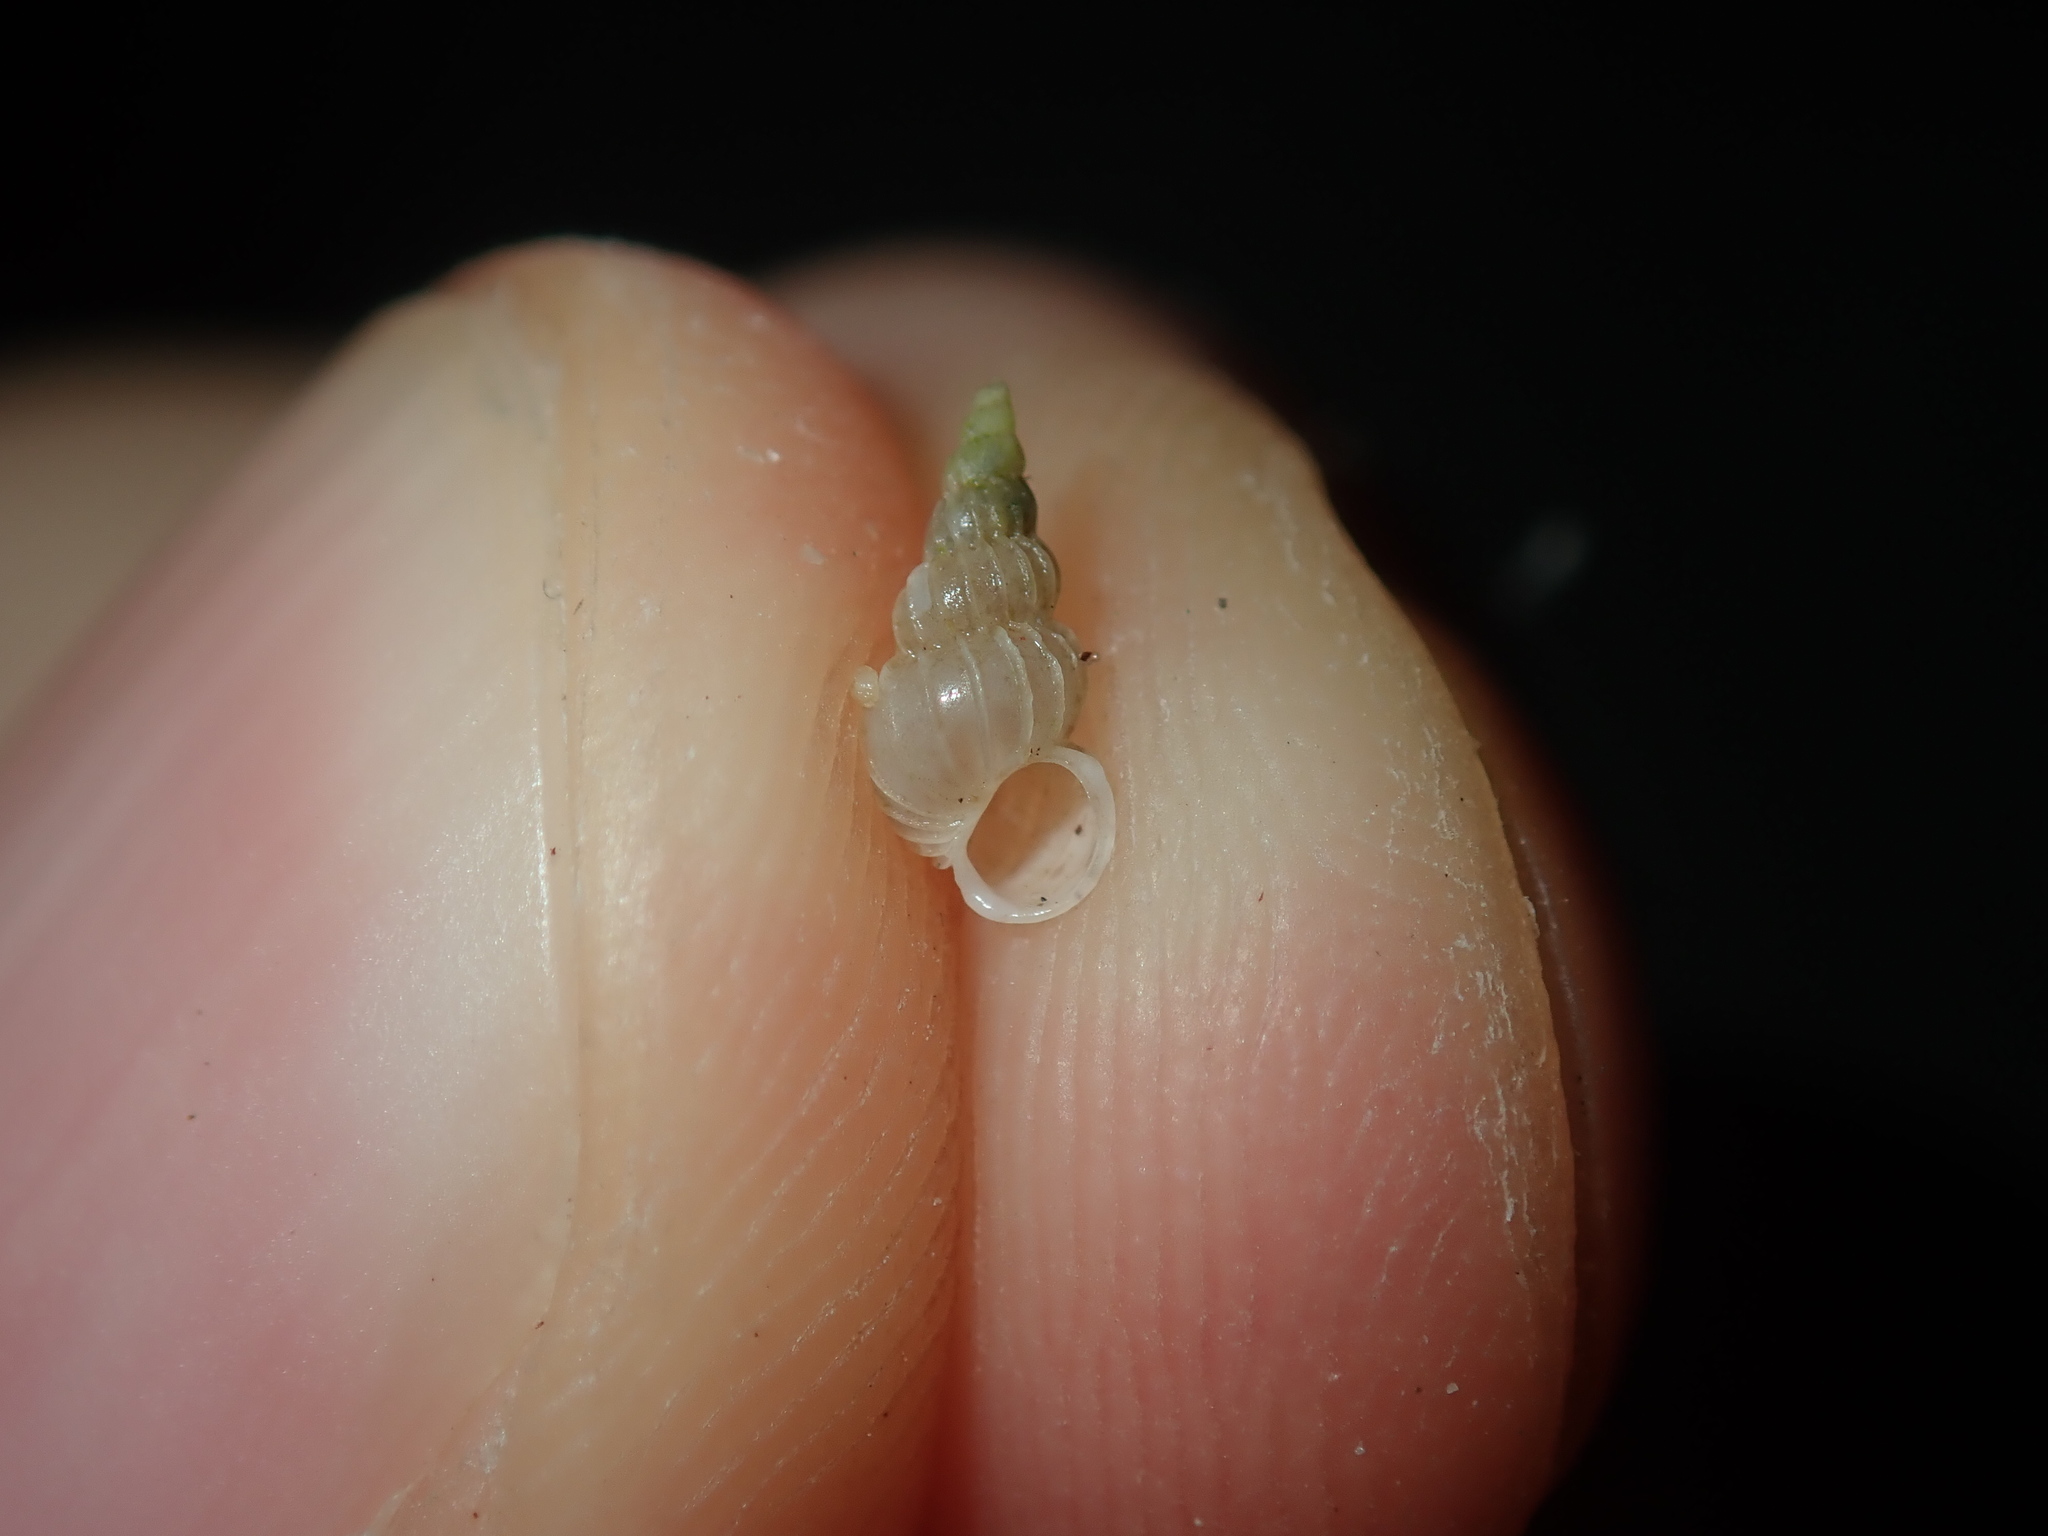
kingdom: Animalia
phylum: Mollusca
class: Gastropoda
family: Epitoniidae
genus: Epitonium
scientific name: Epitonium jukesianum
